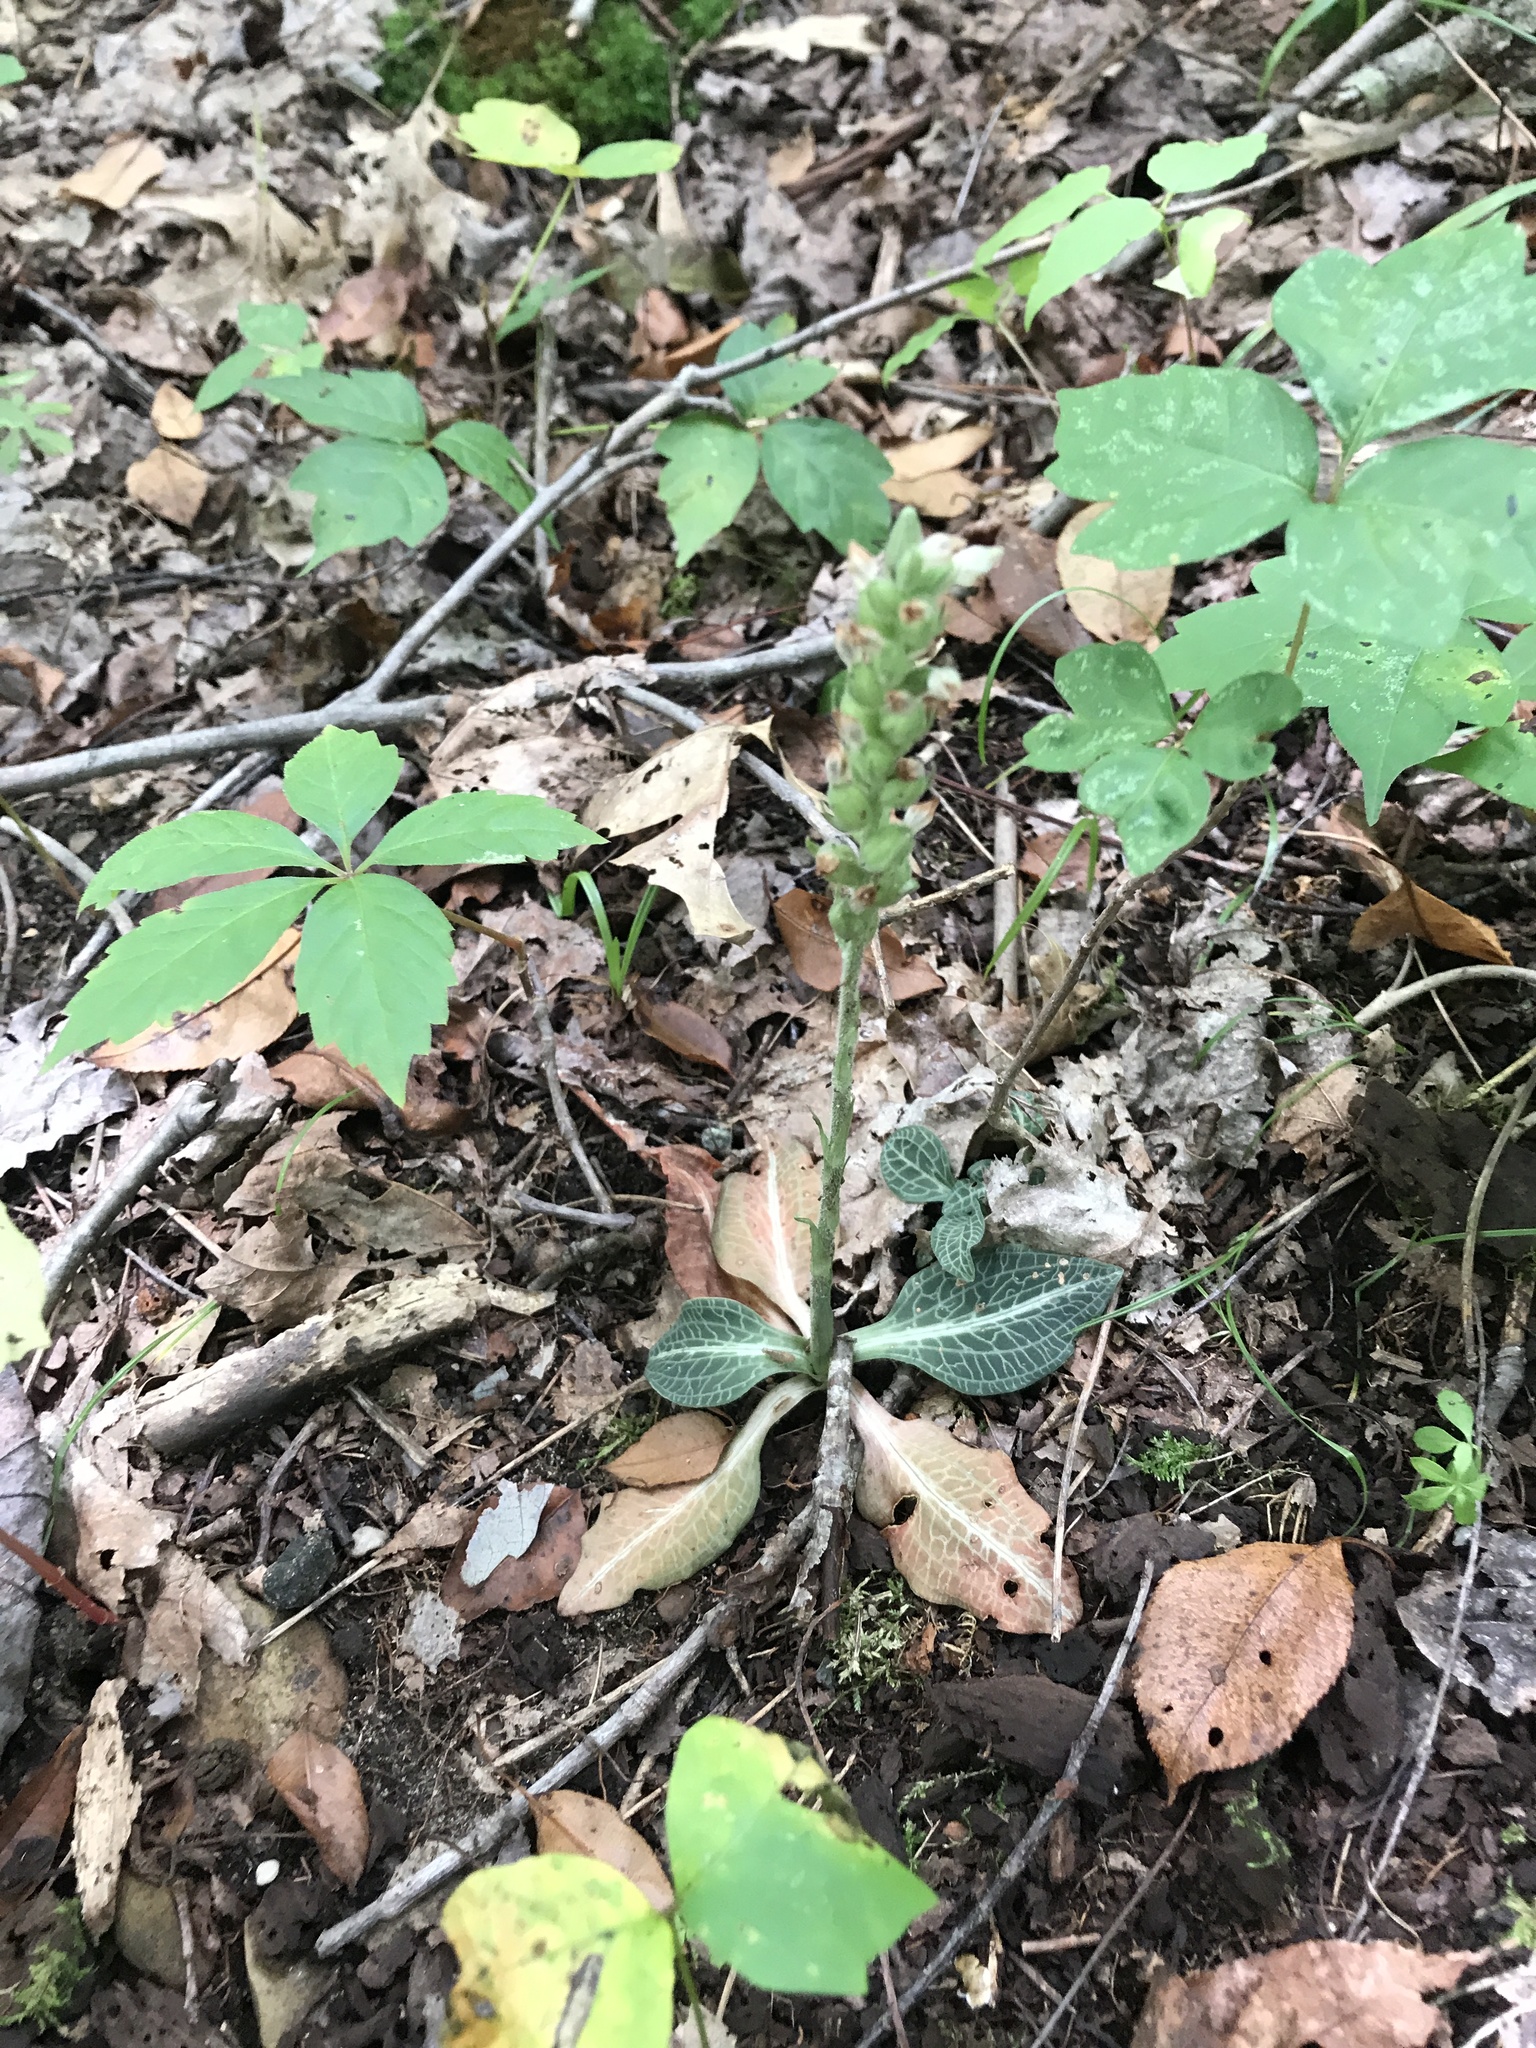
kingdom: Plantae
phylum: Tracheophyta
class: Liliopsida
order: Asparagales
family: Orchidaceae
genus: Goodyera
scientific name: Goodyera pubescens
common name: Downy rattlesnake-plantain
